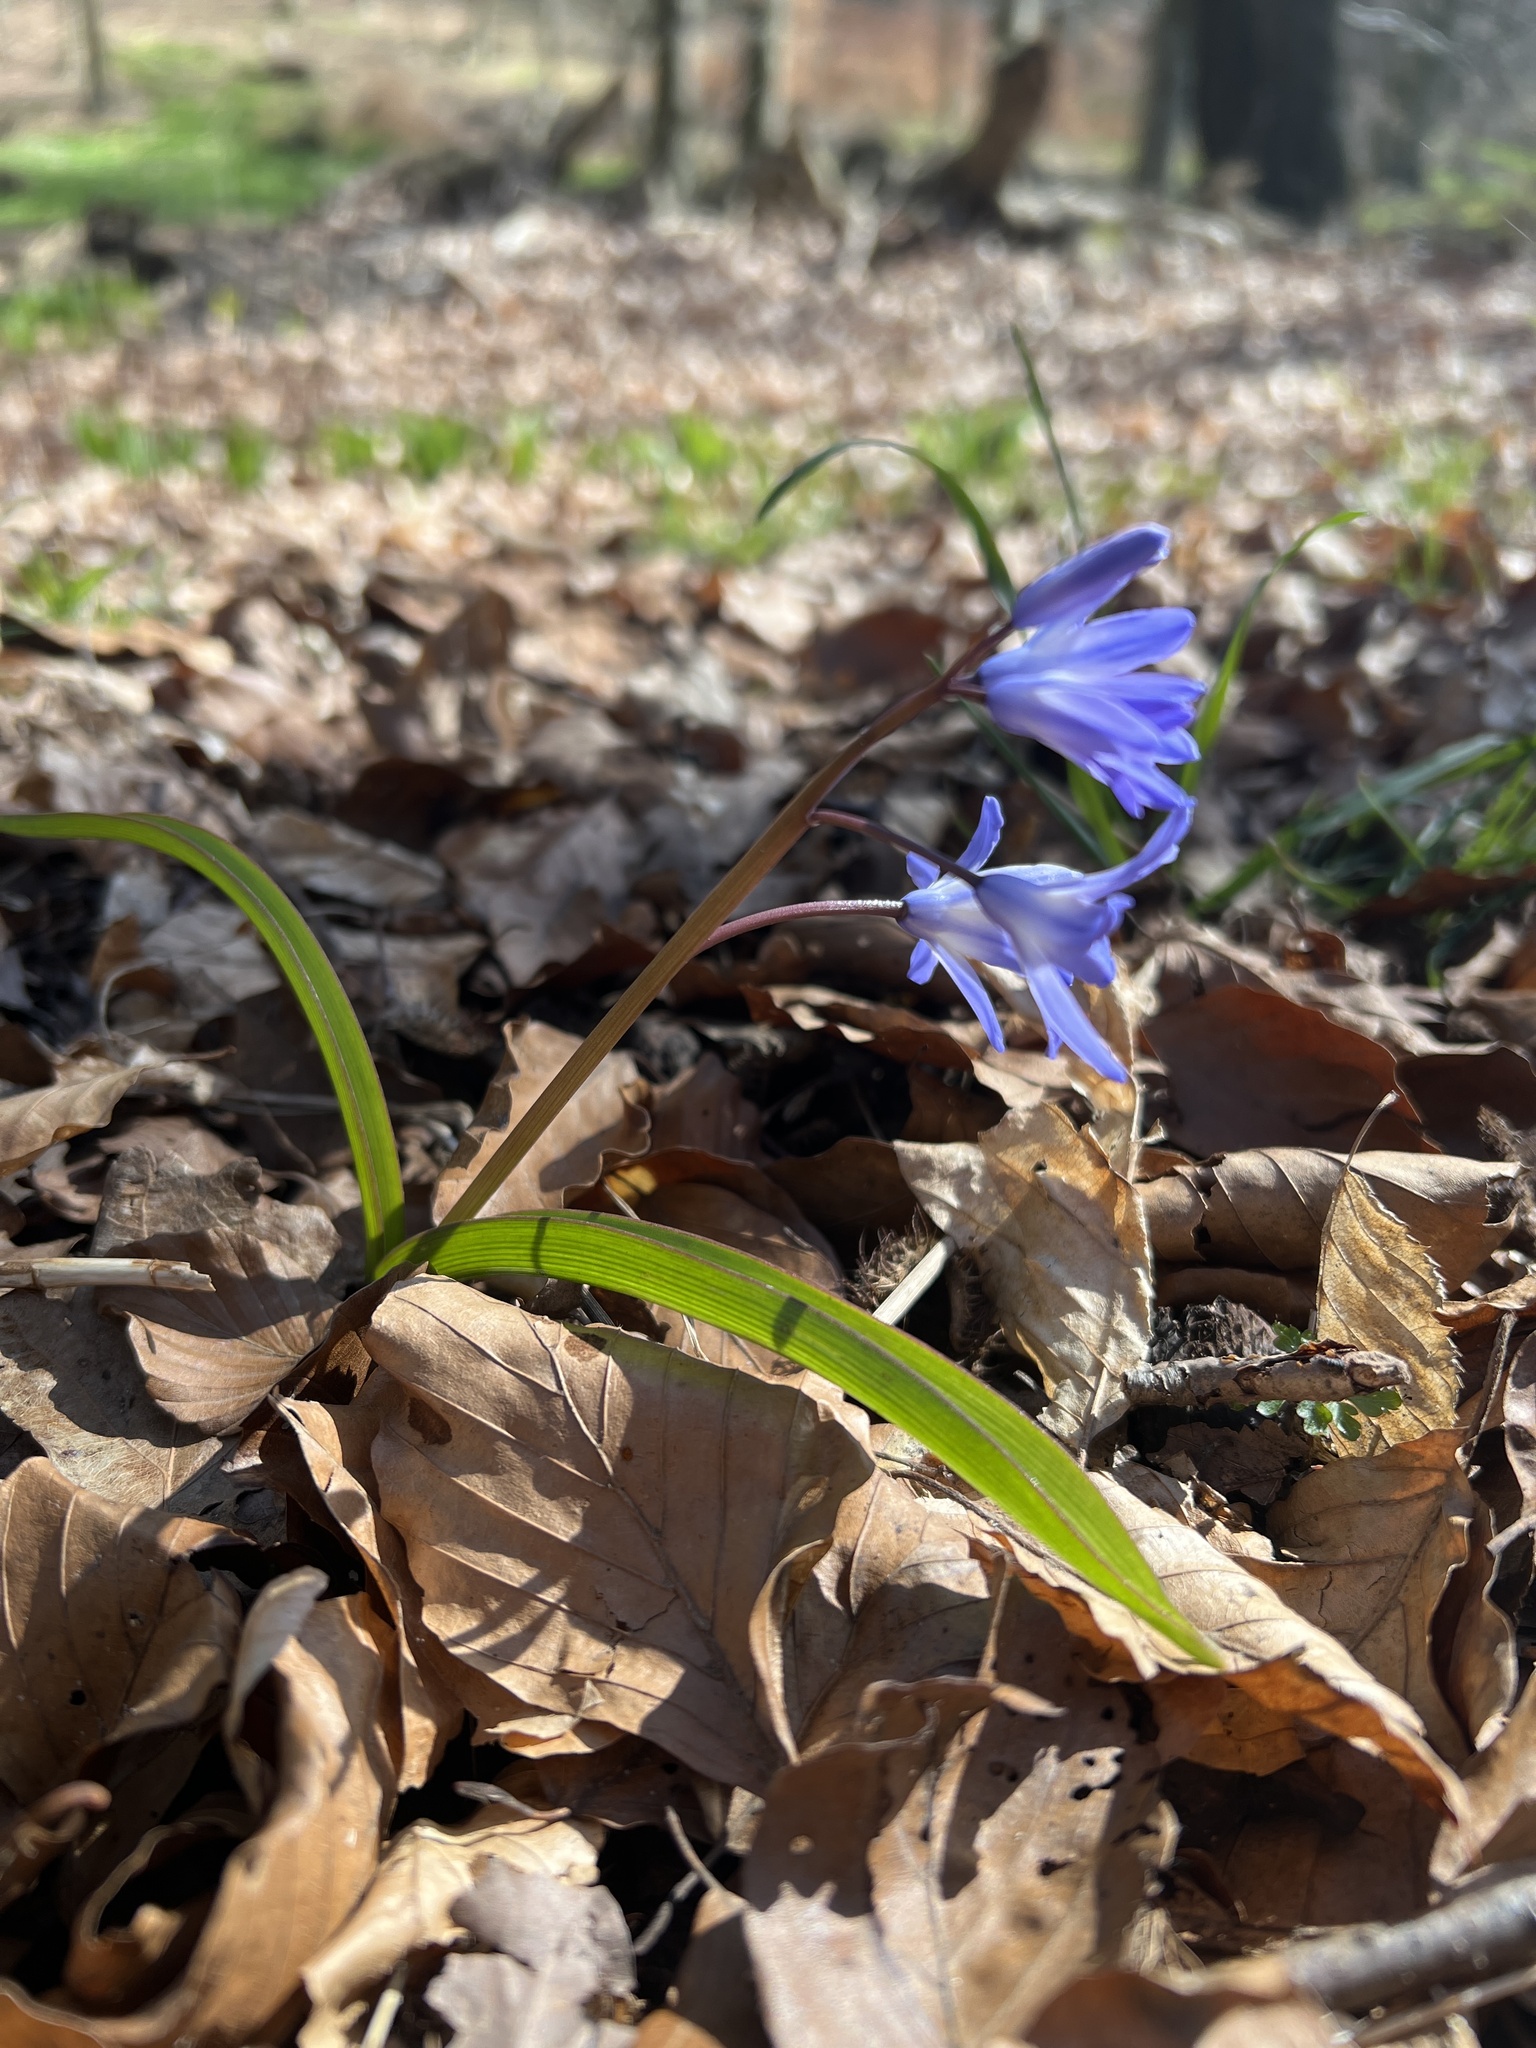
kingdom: Plantae
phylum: Tracheophyta
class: Liliopsida
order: Asparagales
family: Asparagaceae
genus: Scilla
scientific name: Scilla forbesii
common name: Glory-of-the-snow
